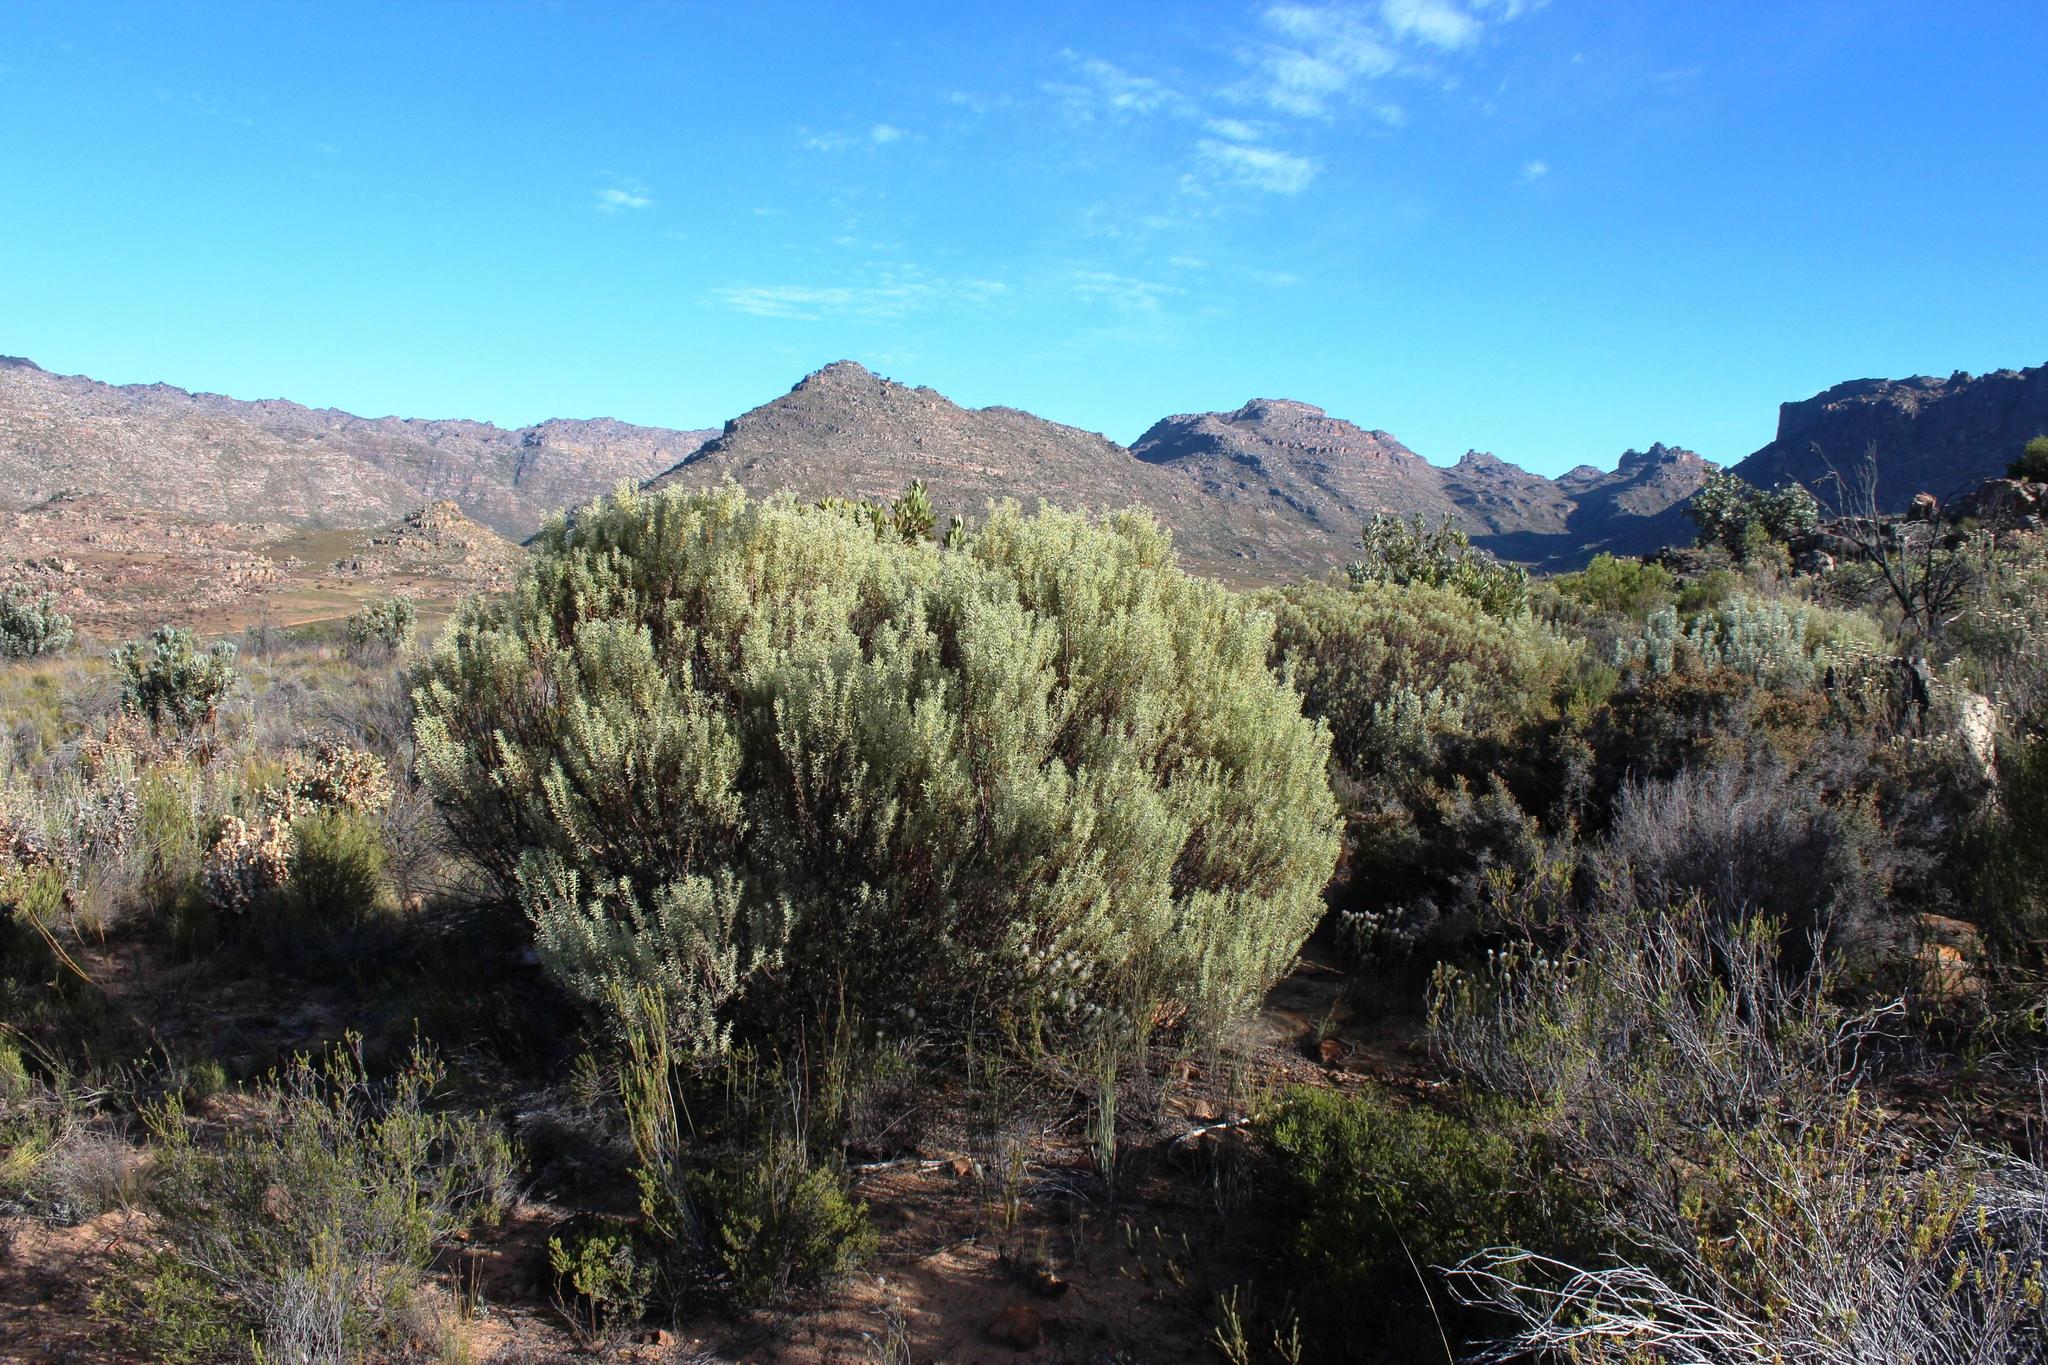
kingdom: Plantae
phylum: Tracheophyta
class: Magnoliopsida
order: Proteales
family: Proteaceae
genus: Leucadendron
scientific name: Leucadendron pubescens
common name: Grey conebush
